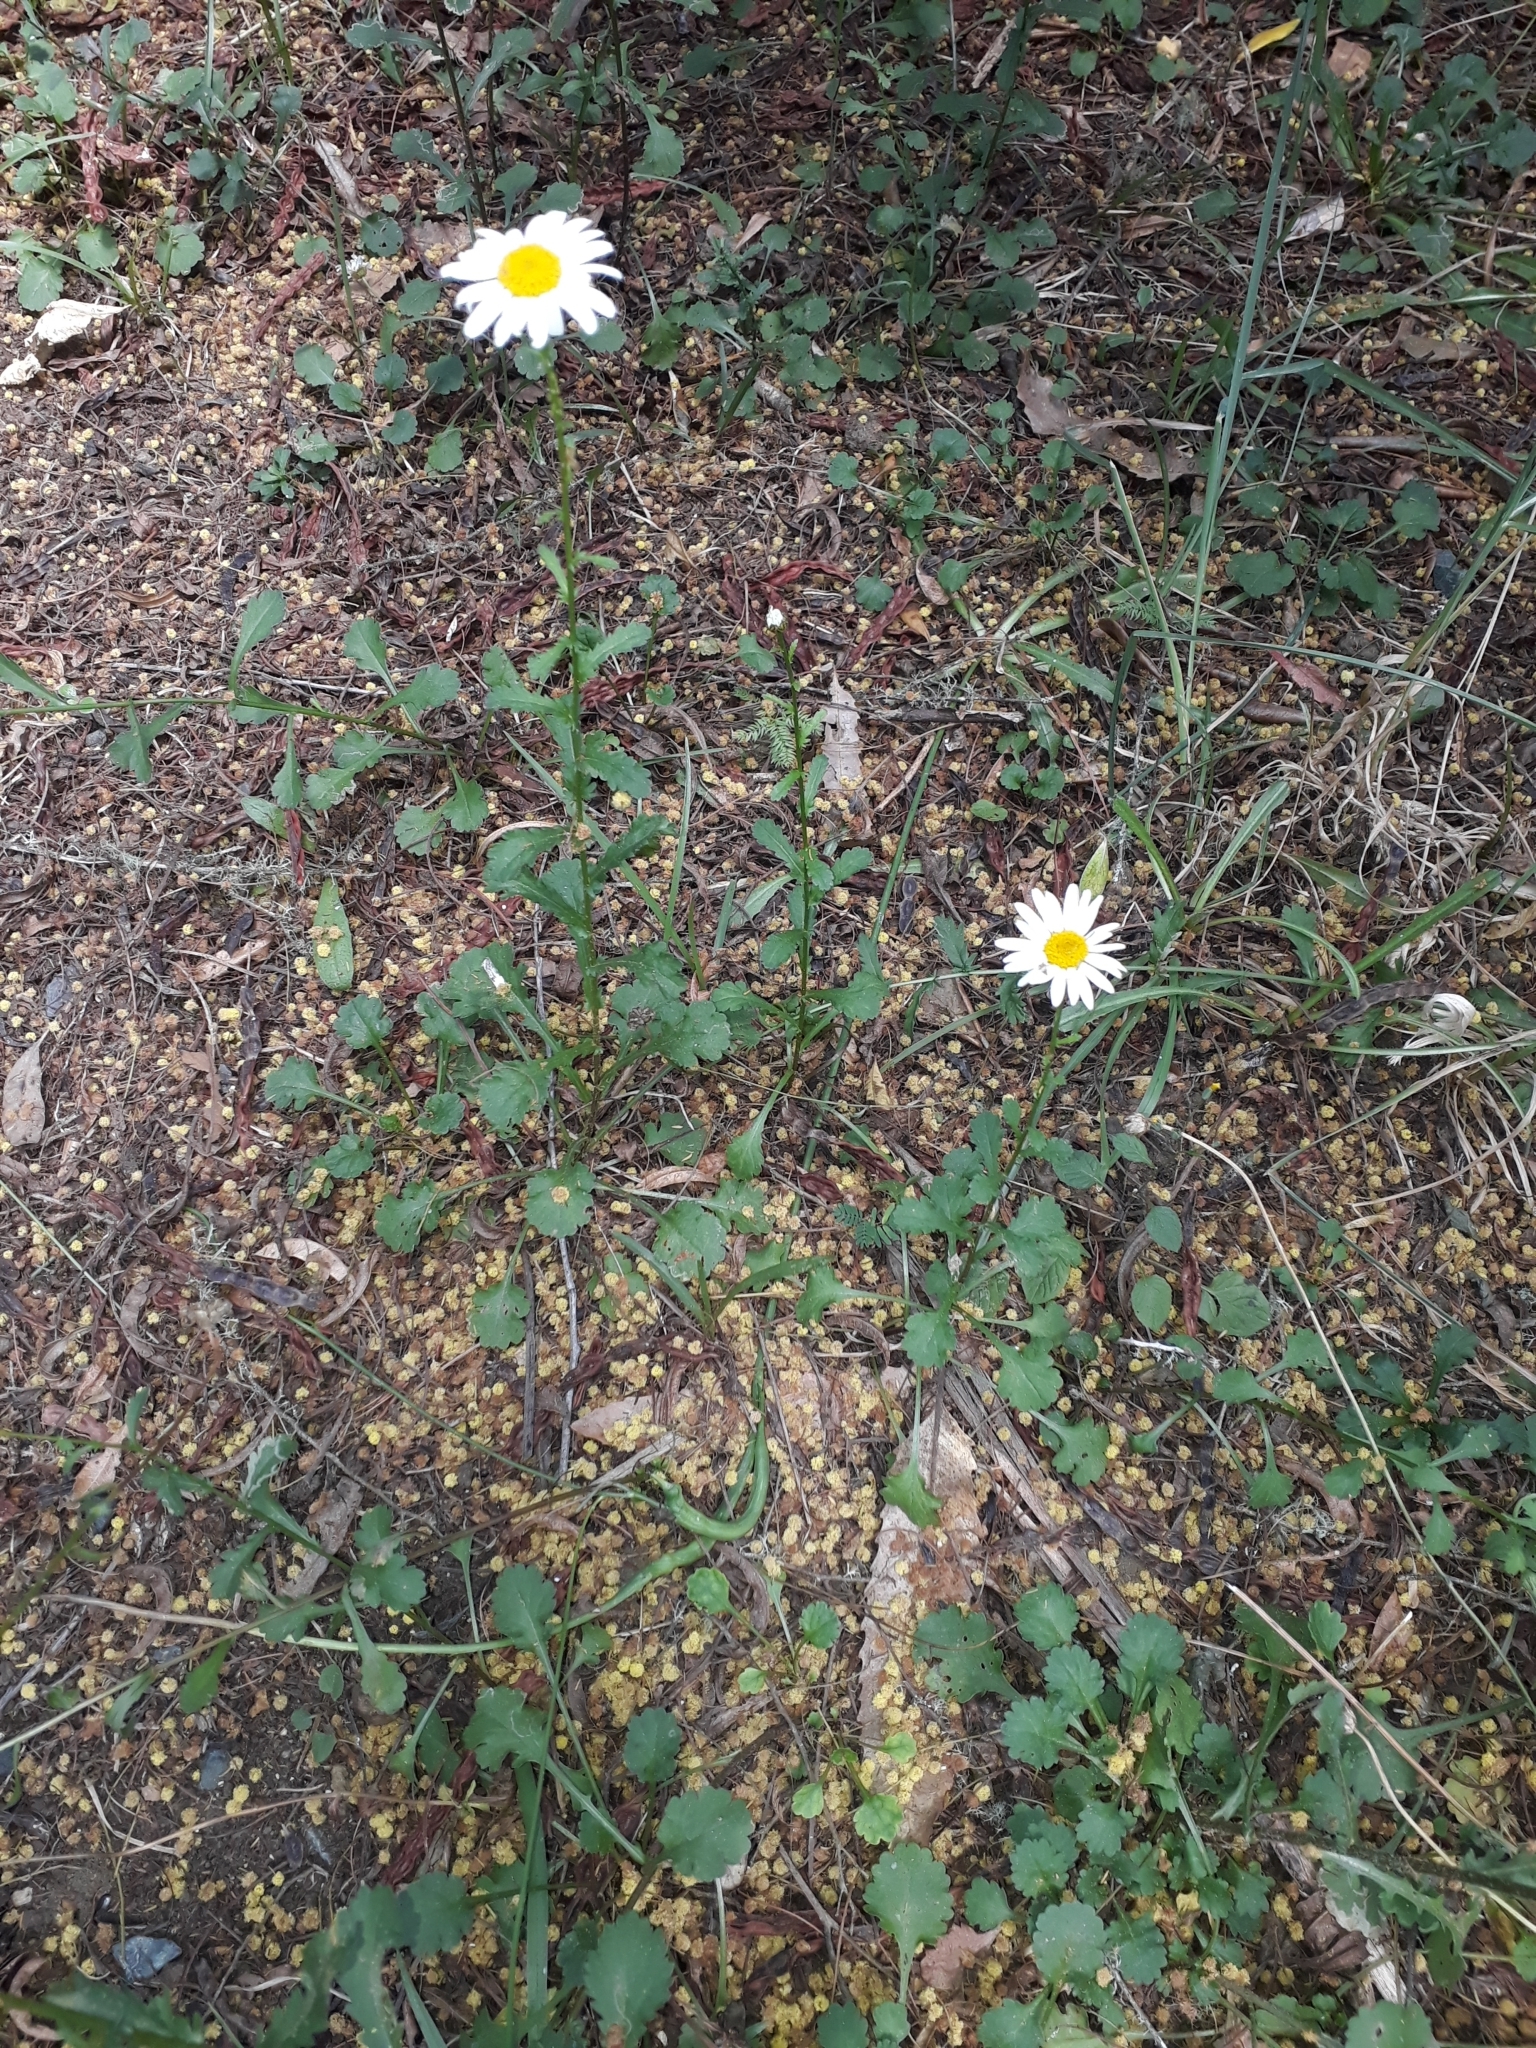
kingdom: Plantae
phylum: Tracheophyta
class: Magnoliopsida
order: Asterales
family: Asteraceae
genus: Leucanthemum
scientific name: Leucanthemum vulgare
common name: Oxeye daisy
